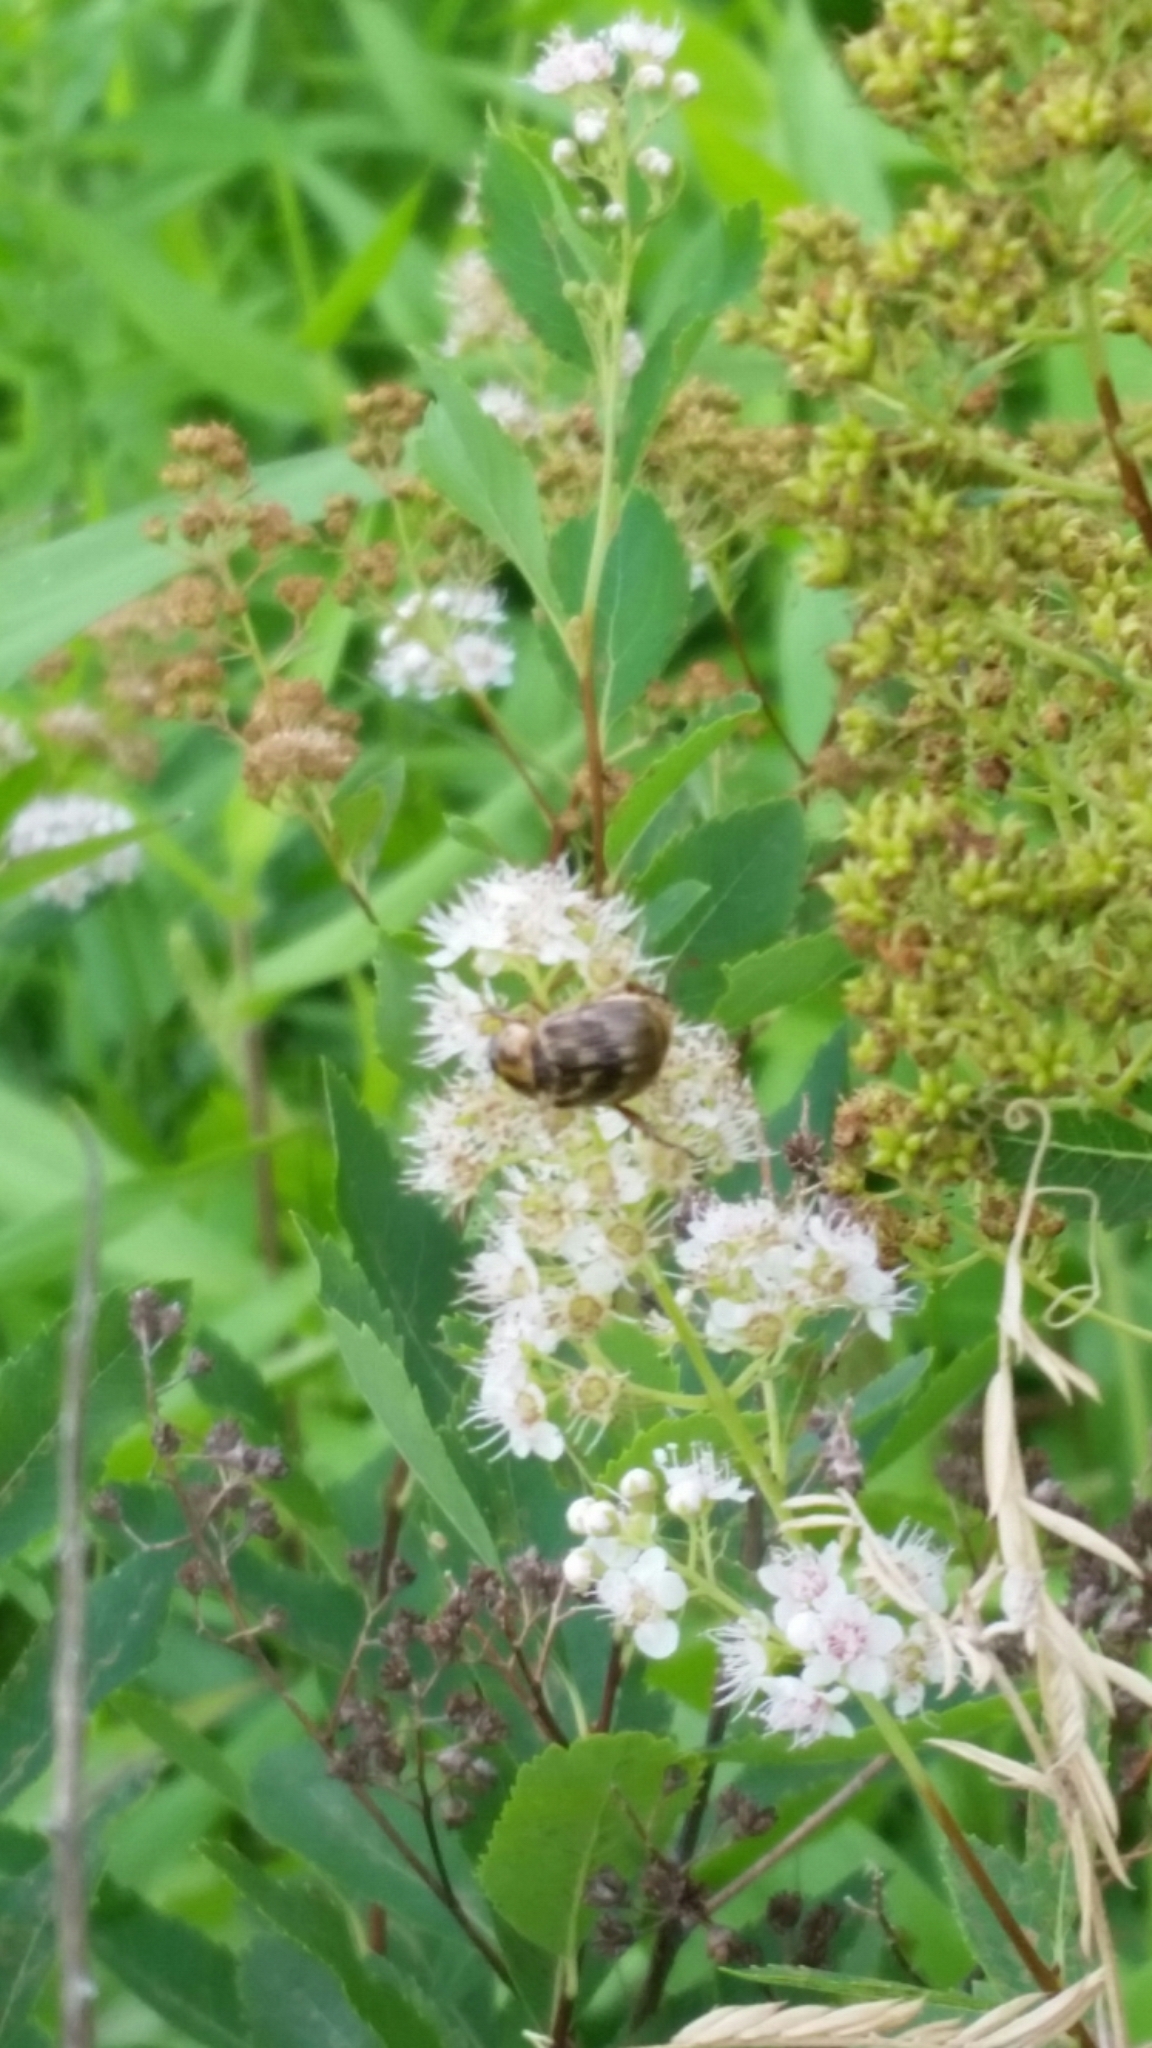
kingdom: Animalia
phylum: Arthropoda
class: Insecta
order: Coleoptera
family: Scarabaeidae
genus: Exomala
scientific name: Exomala orientalis
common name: Oriental beetle
